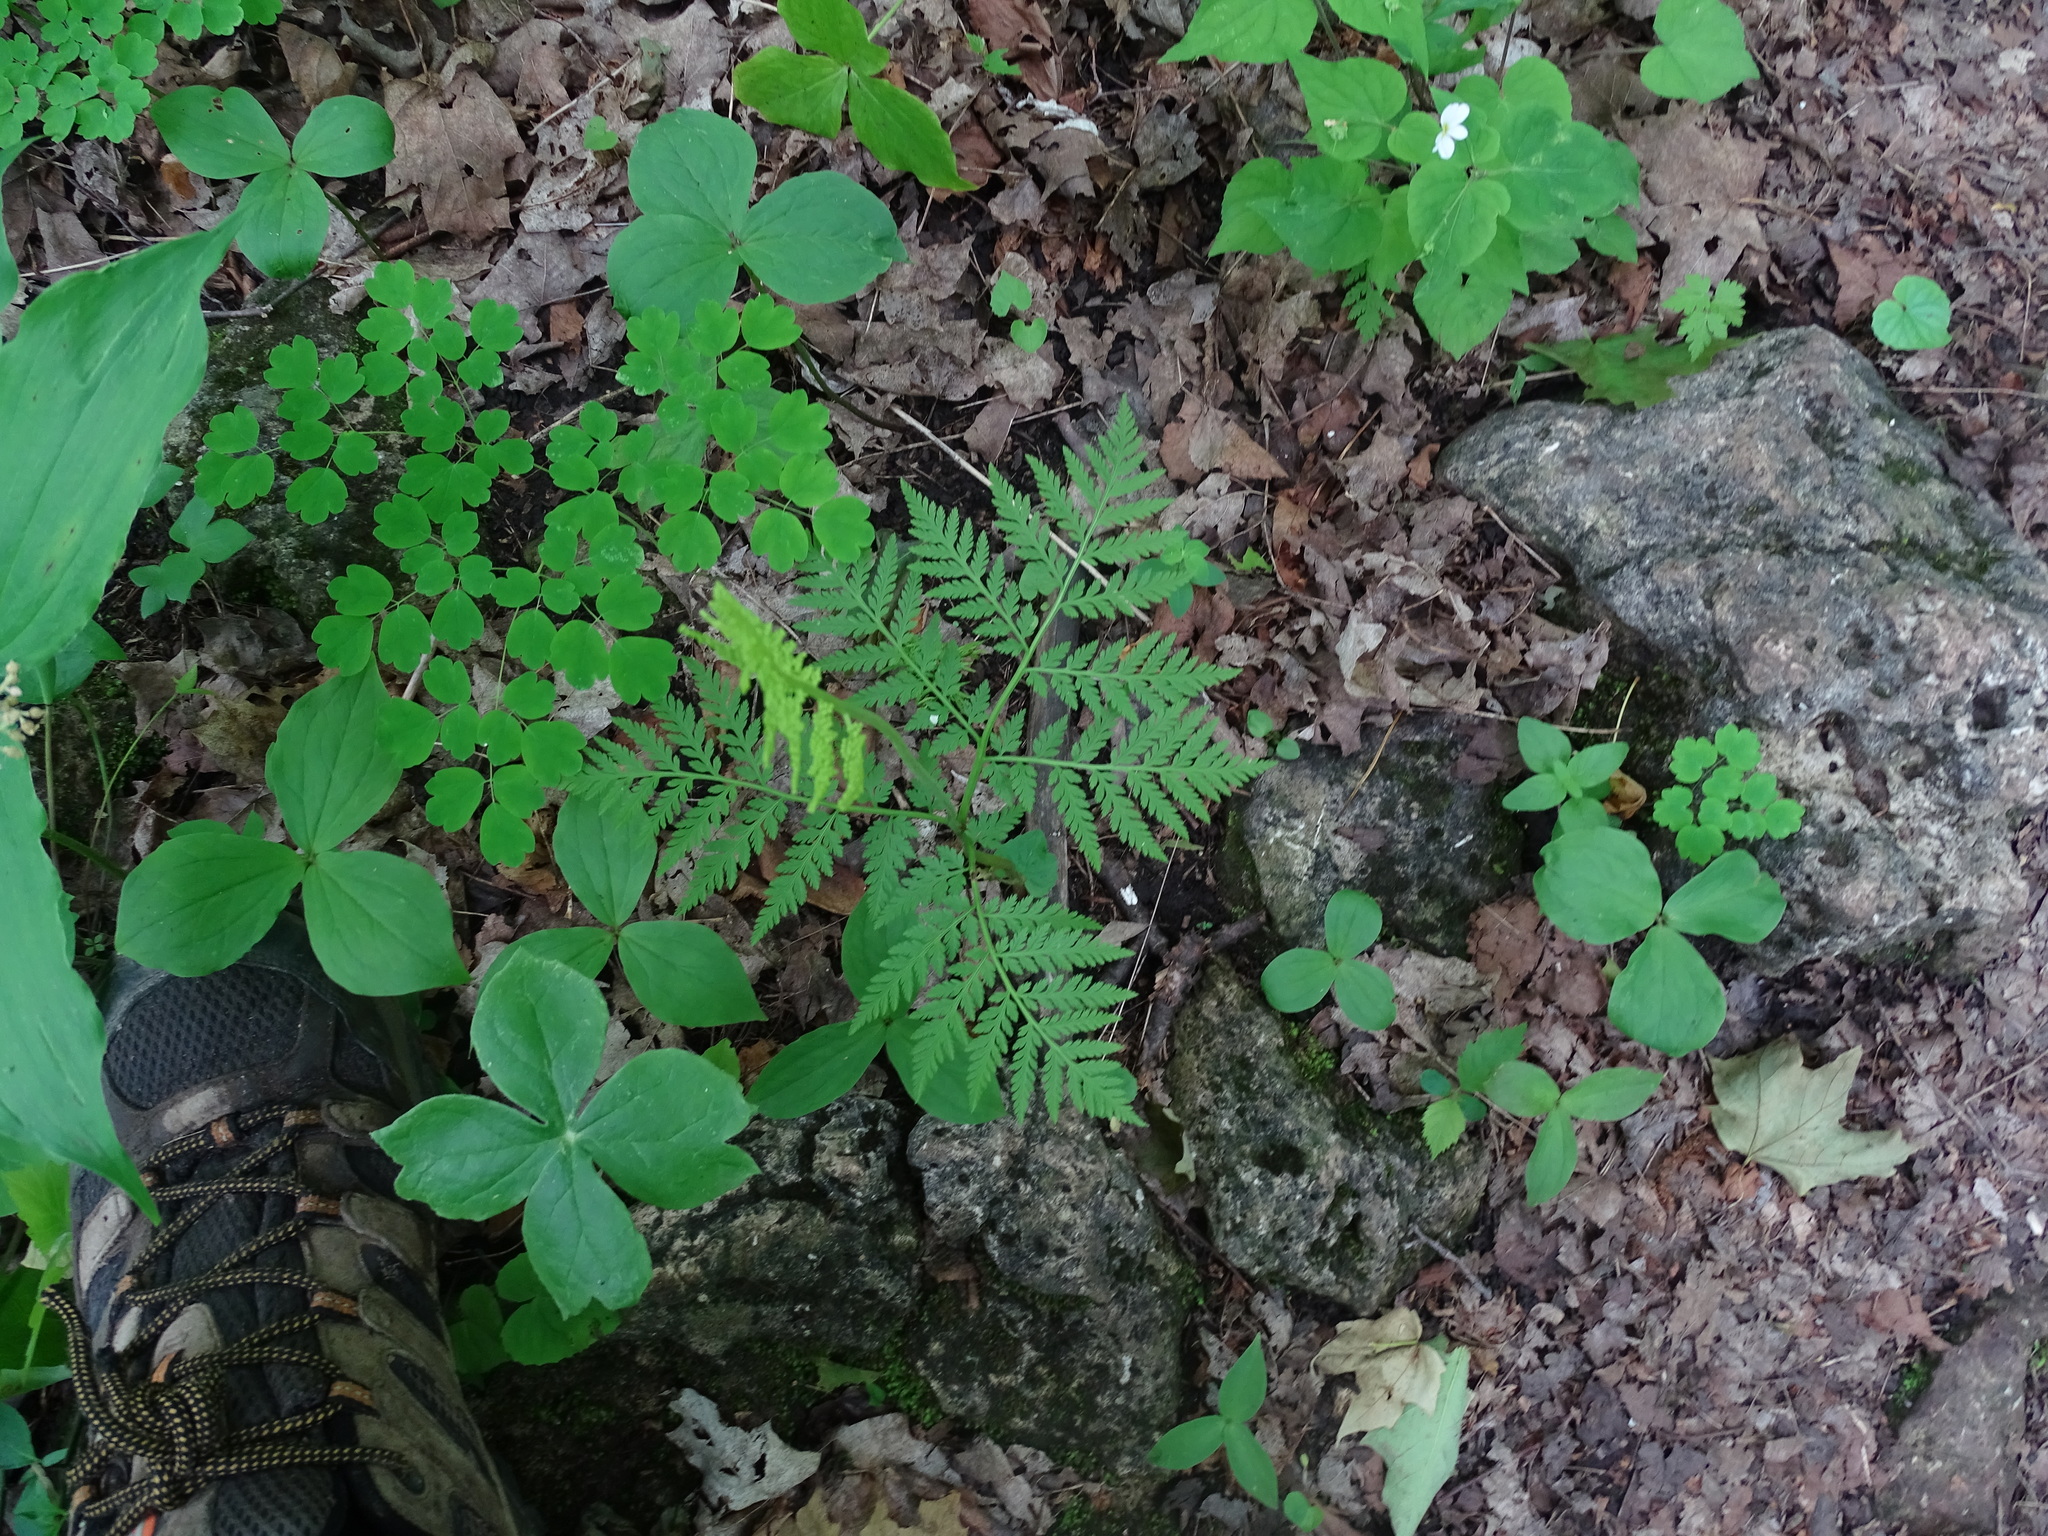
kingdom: Plantae
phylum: Tracheophyta
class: Polypodiopsida
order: Ophioglossales
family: Ophioglossaceae
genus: Botrypus
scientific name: Botrypus virginianus
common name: Common grapefern
